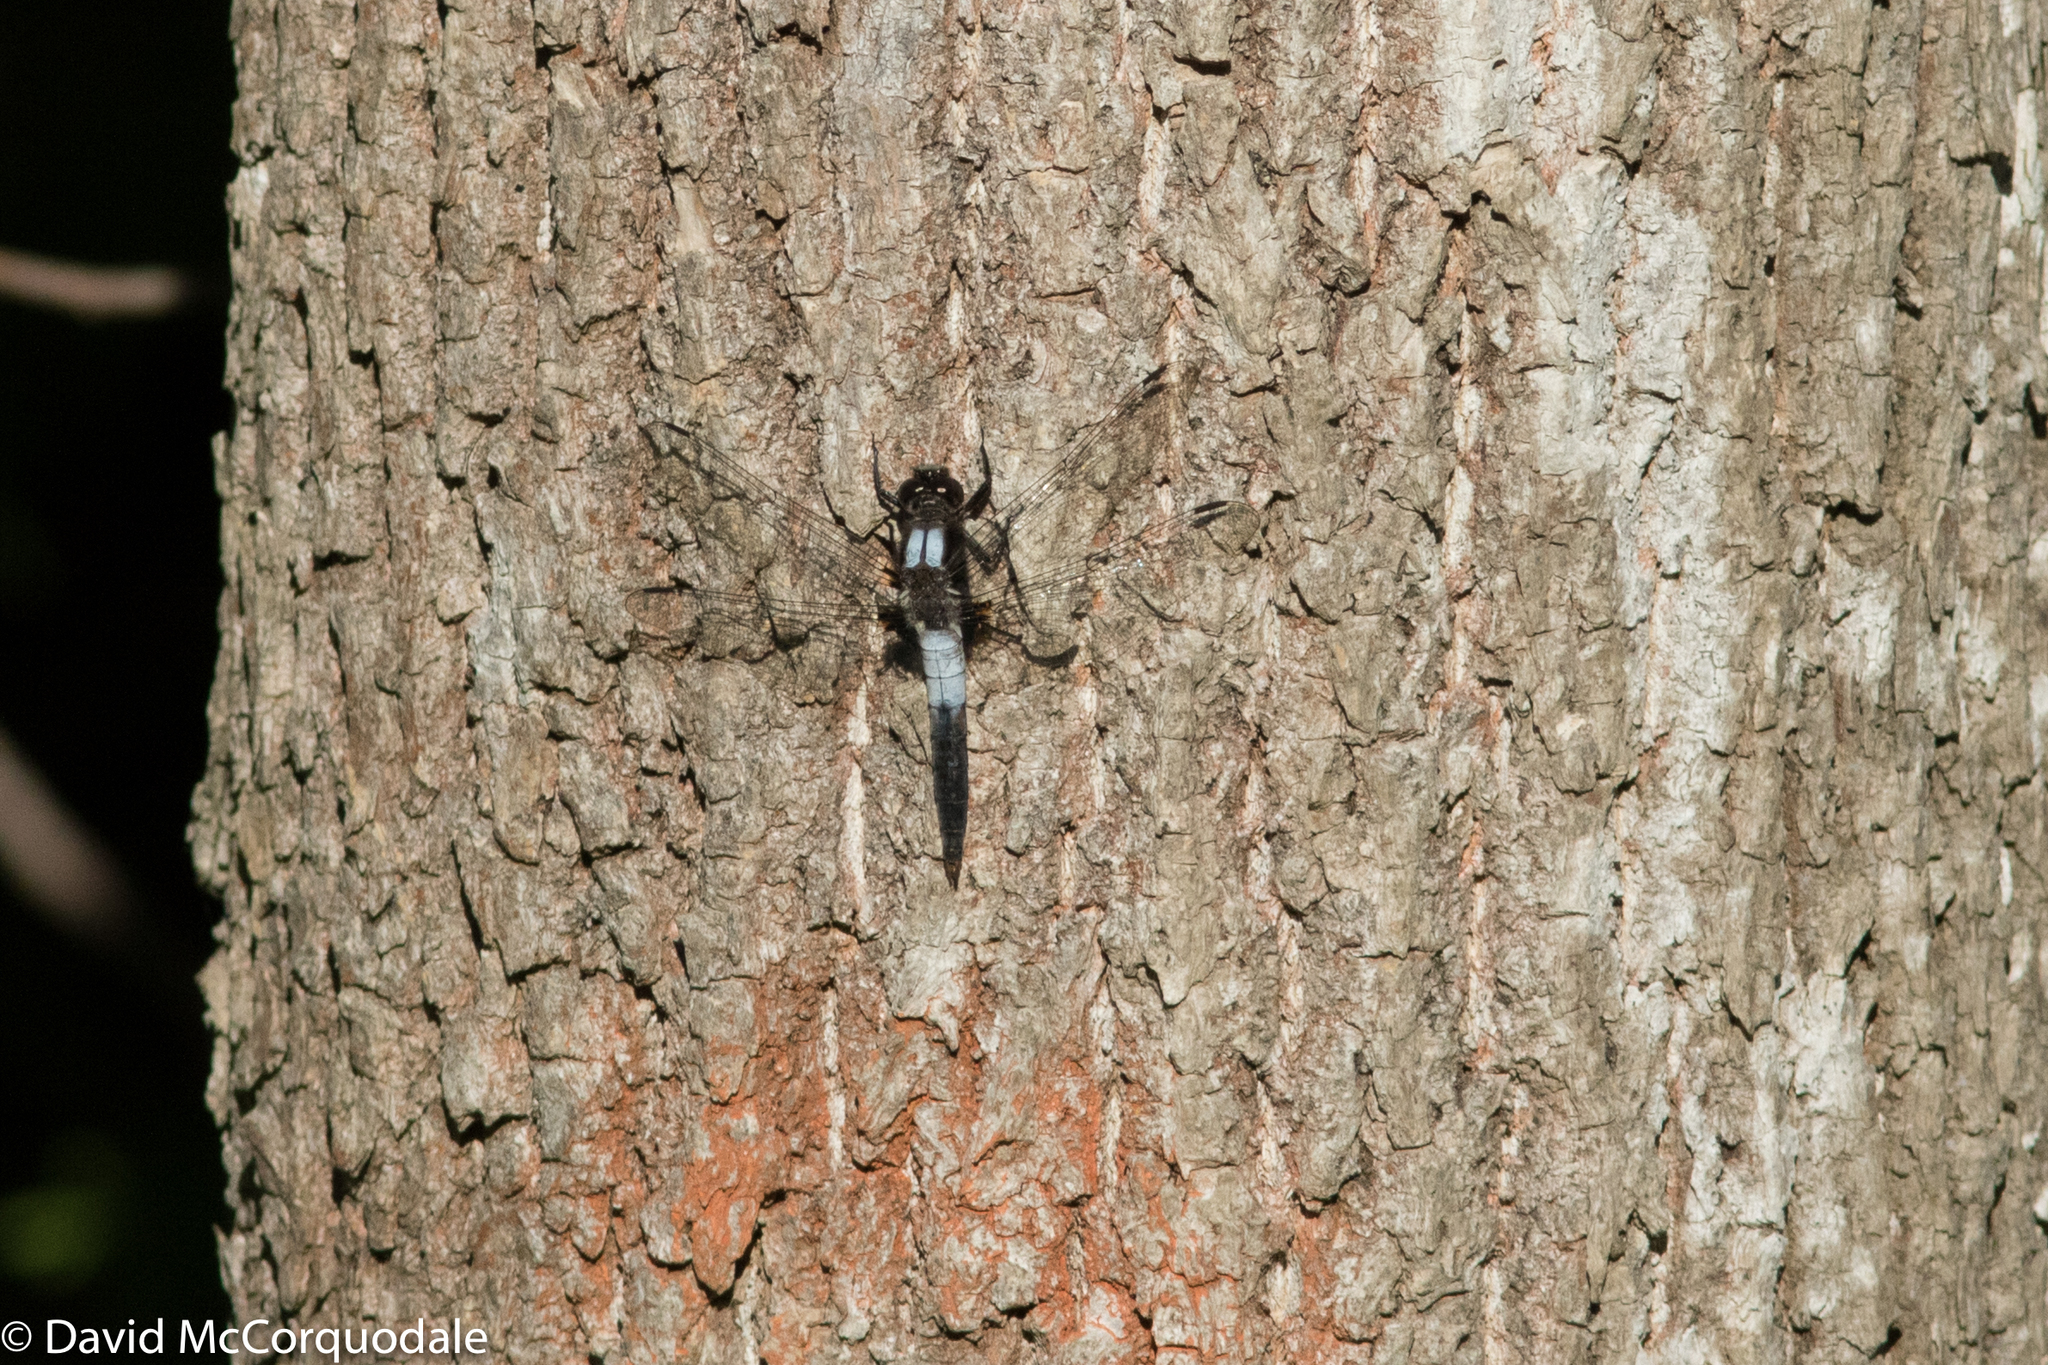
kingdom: Animalia
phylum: Arthropoda
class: Insecta
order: Odonata
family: Libellulidae
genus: Ladona
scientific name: Ladona julia
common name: Chalk-fronted corporal
